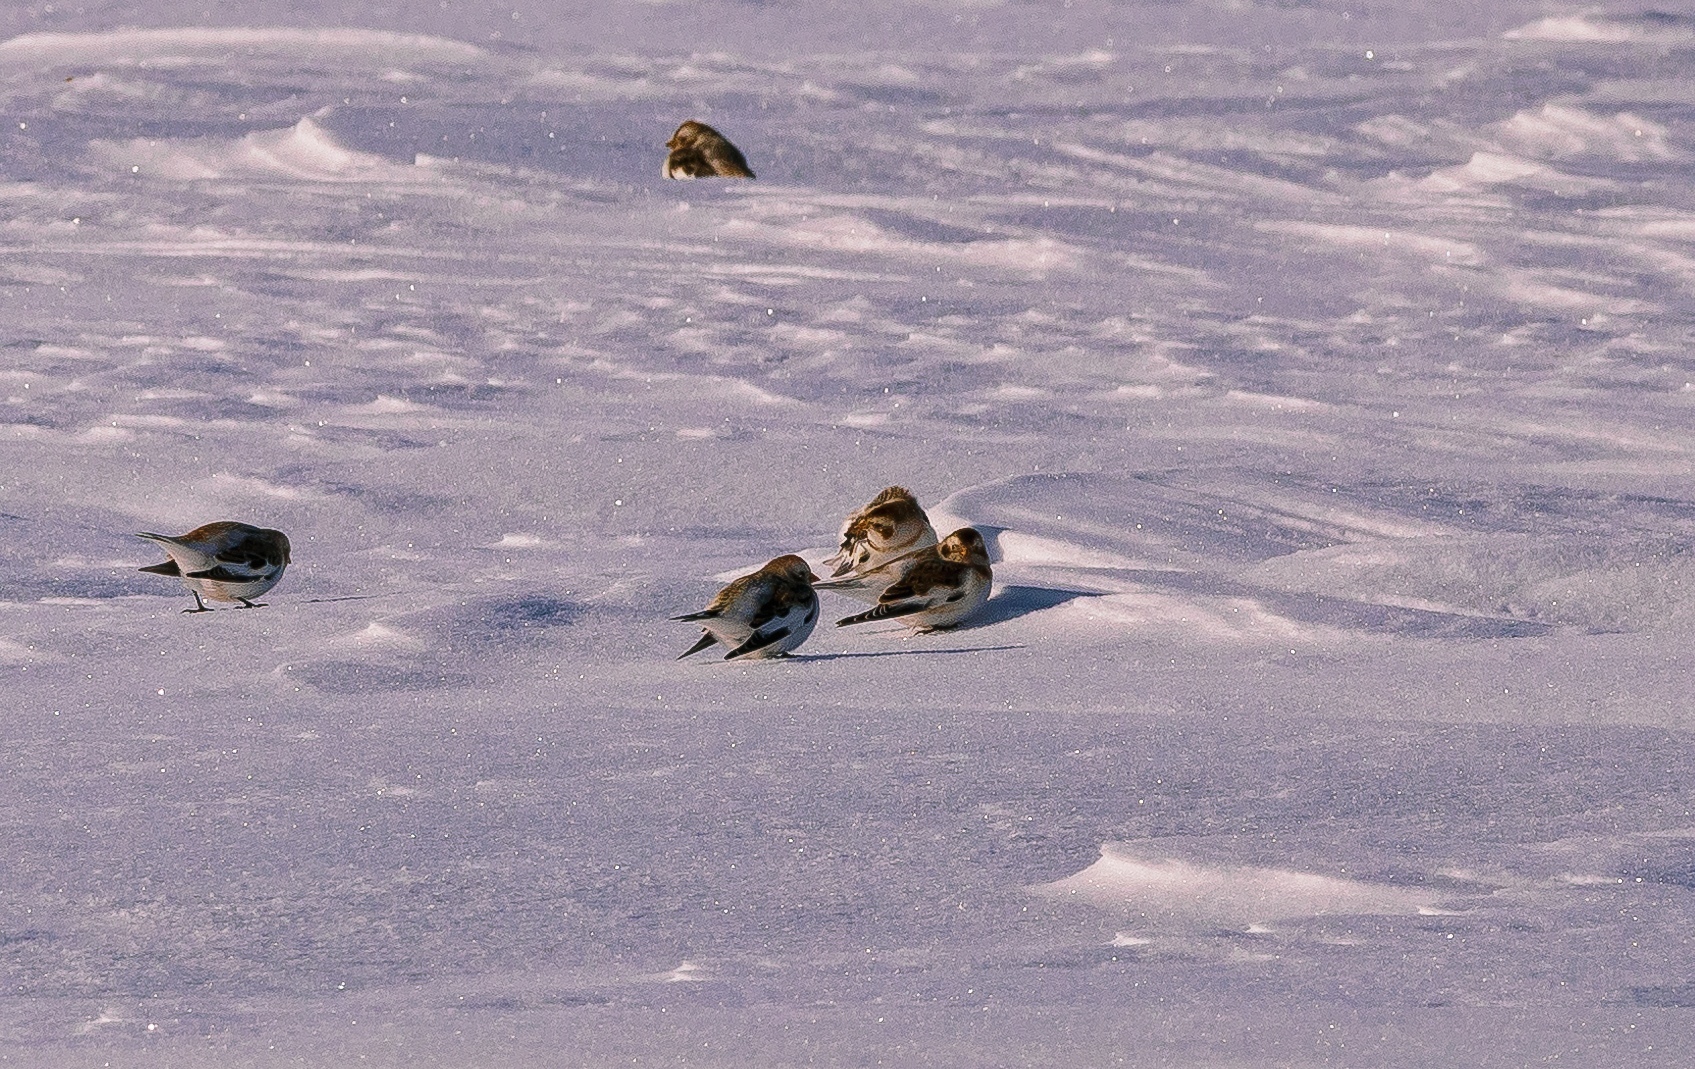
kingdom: Animalia
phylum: Chordata
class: Aves
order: Passeriformes
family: Calcariidae
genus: Plectrophenax
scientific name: Plectrophenax nivalis
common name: Snow bunting
